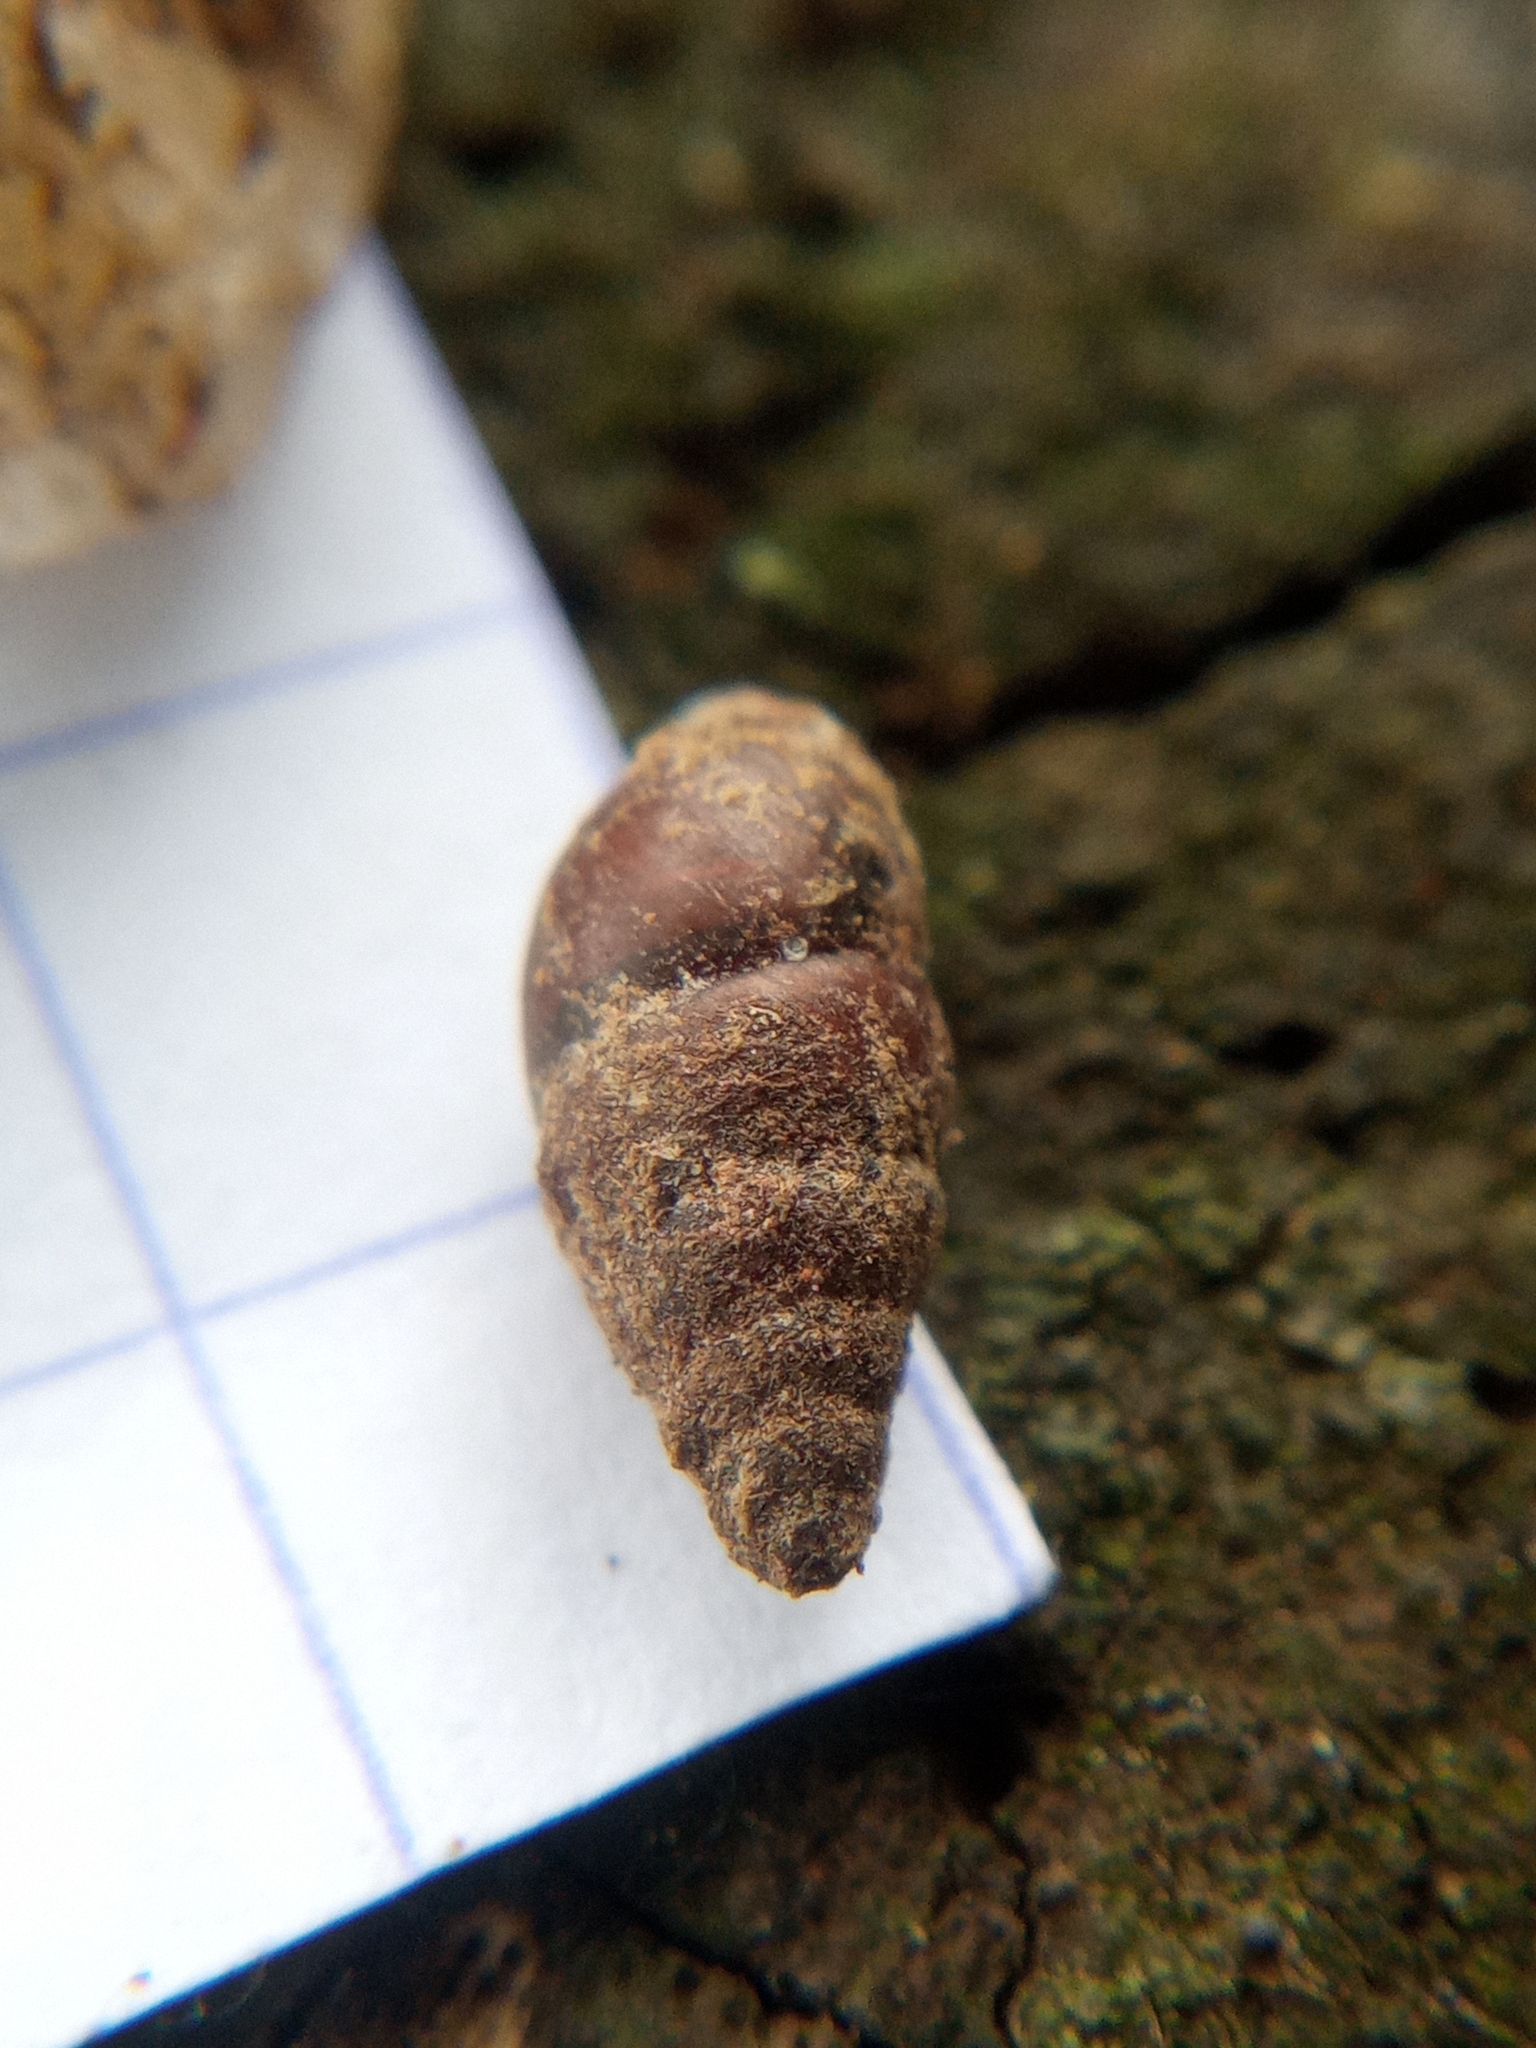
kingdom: Animalia
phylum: Mollusca
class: Gastropoda
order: Stylommatophora
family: Enidae
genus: Merdigera
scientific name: Merdigera obscura
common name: Lesser bulin
